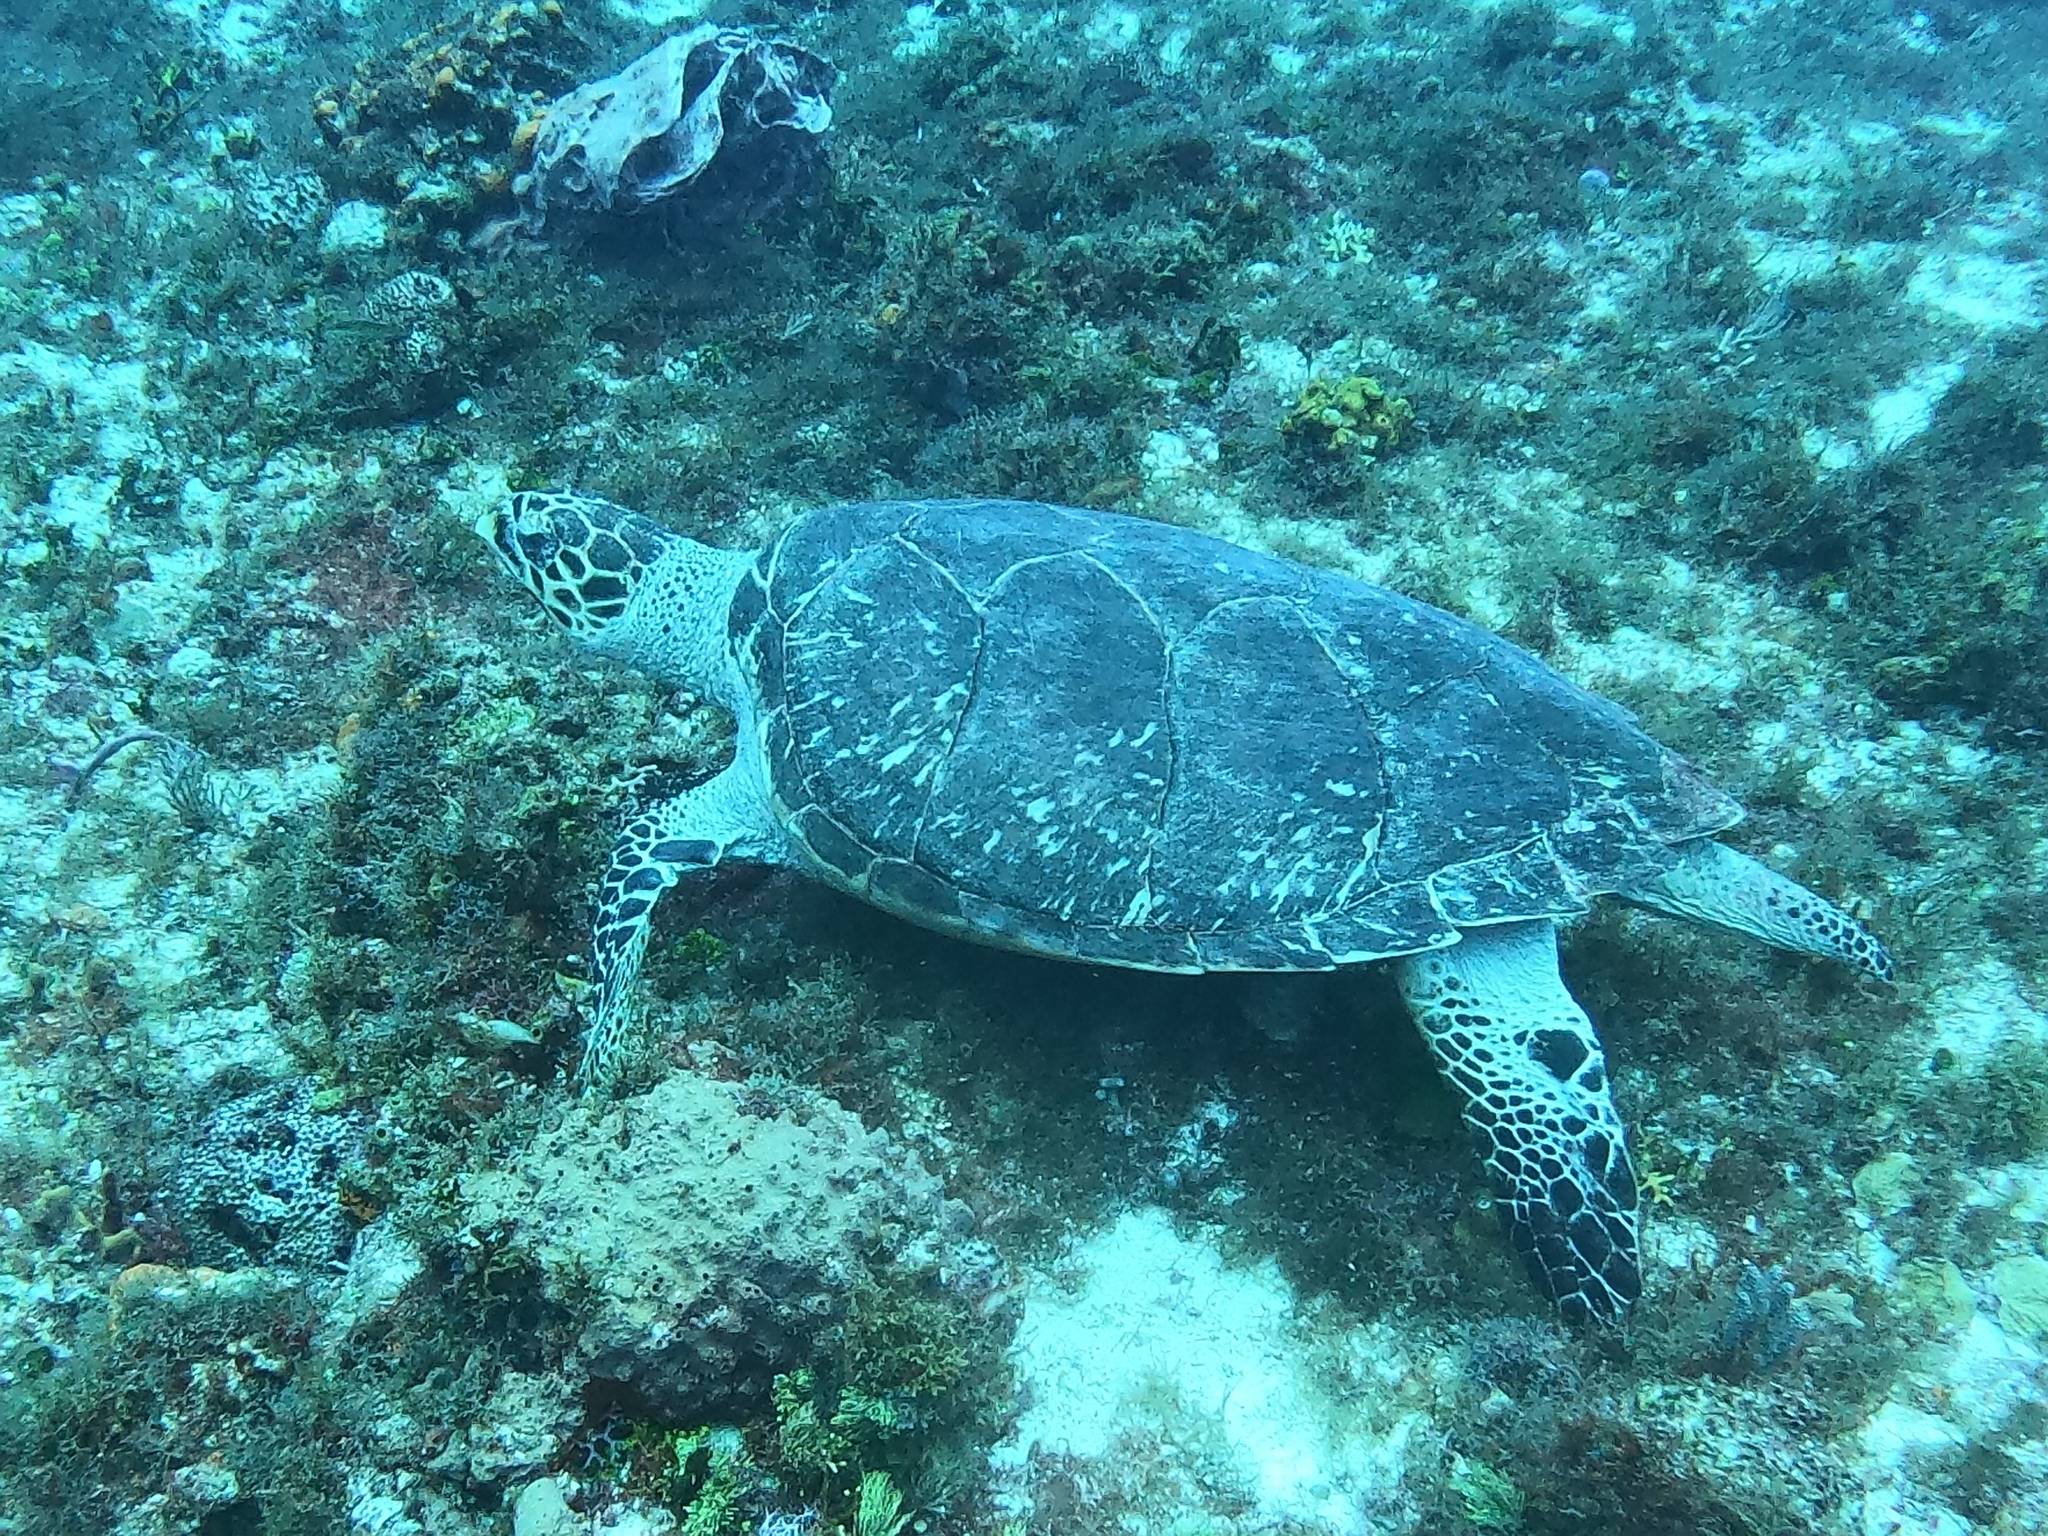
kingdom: Animalia
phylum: Chordata
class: Testudines
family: Cheloniidae
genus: Eretmochelys
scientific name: Eretmochelys imbricata
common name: Hawksbill turtle
